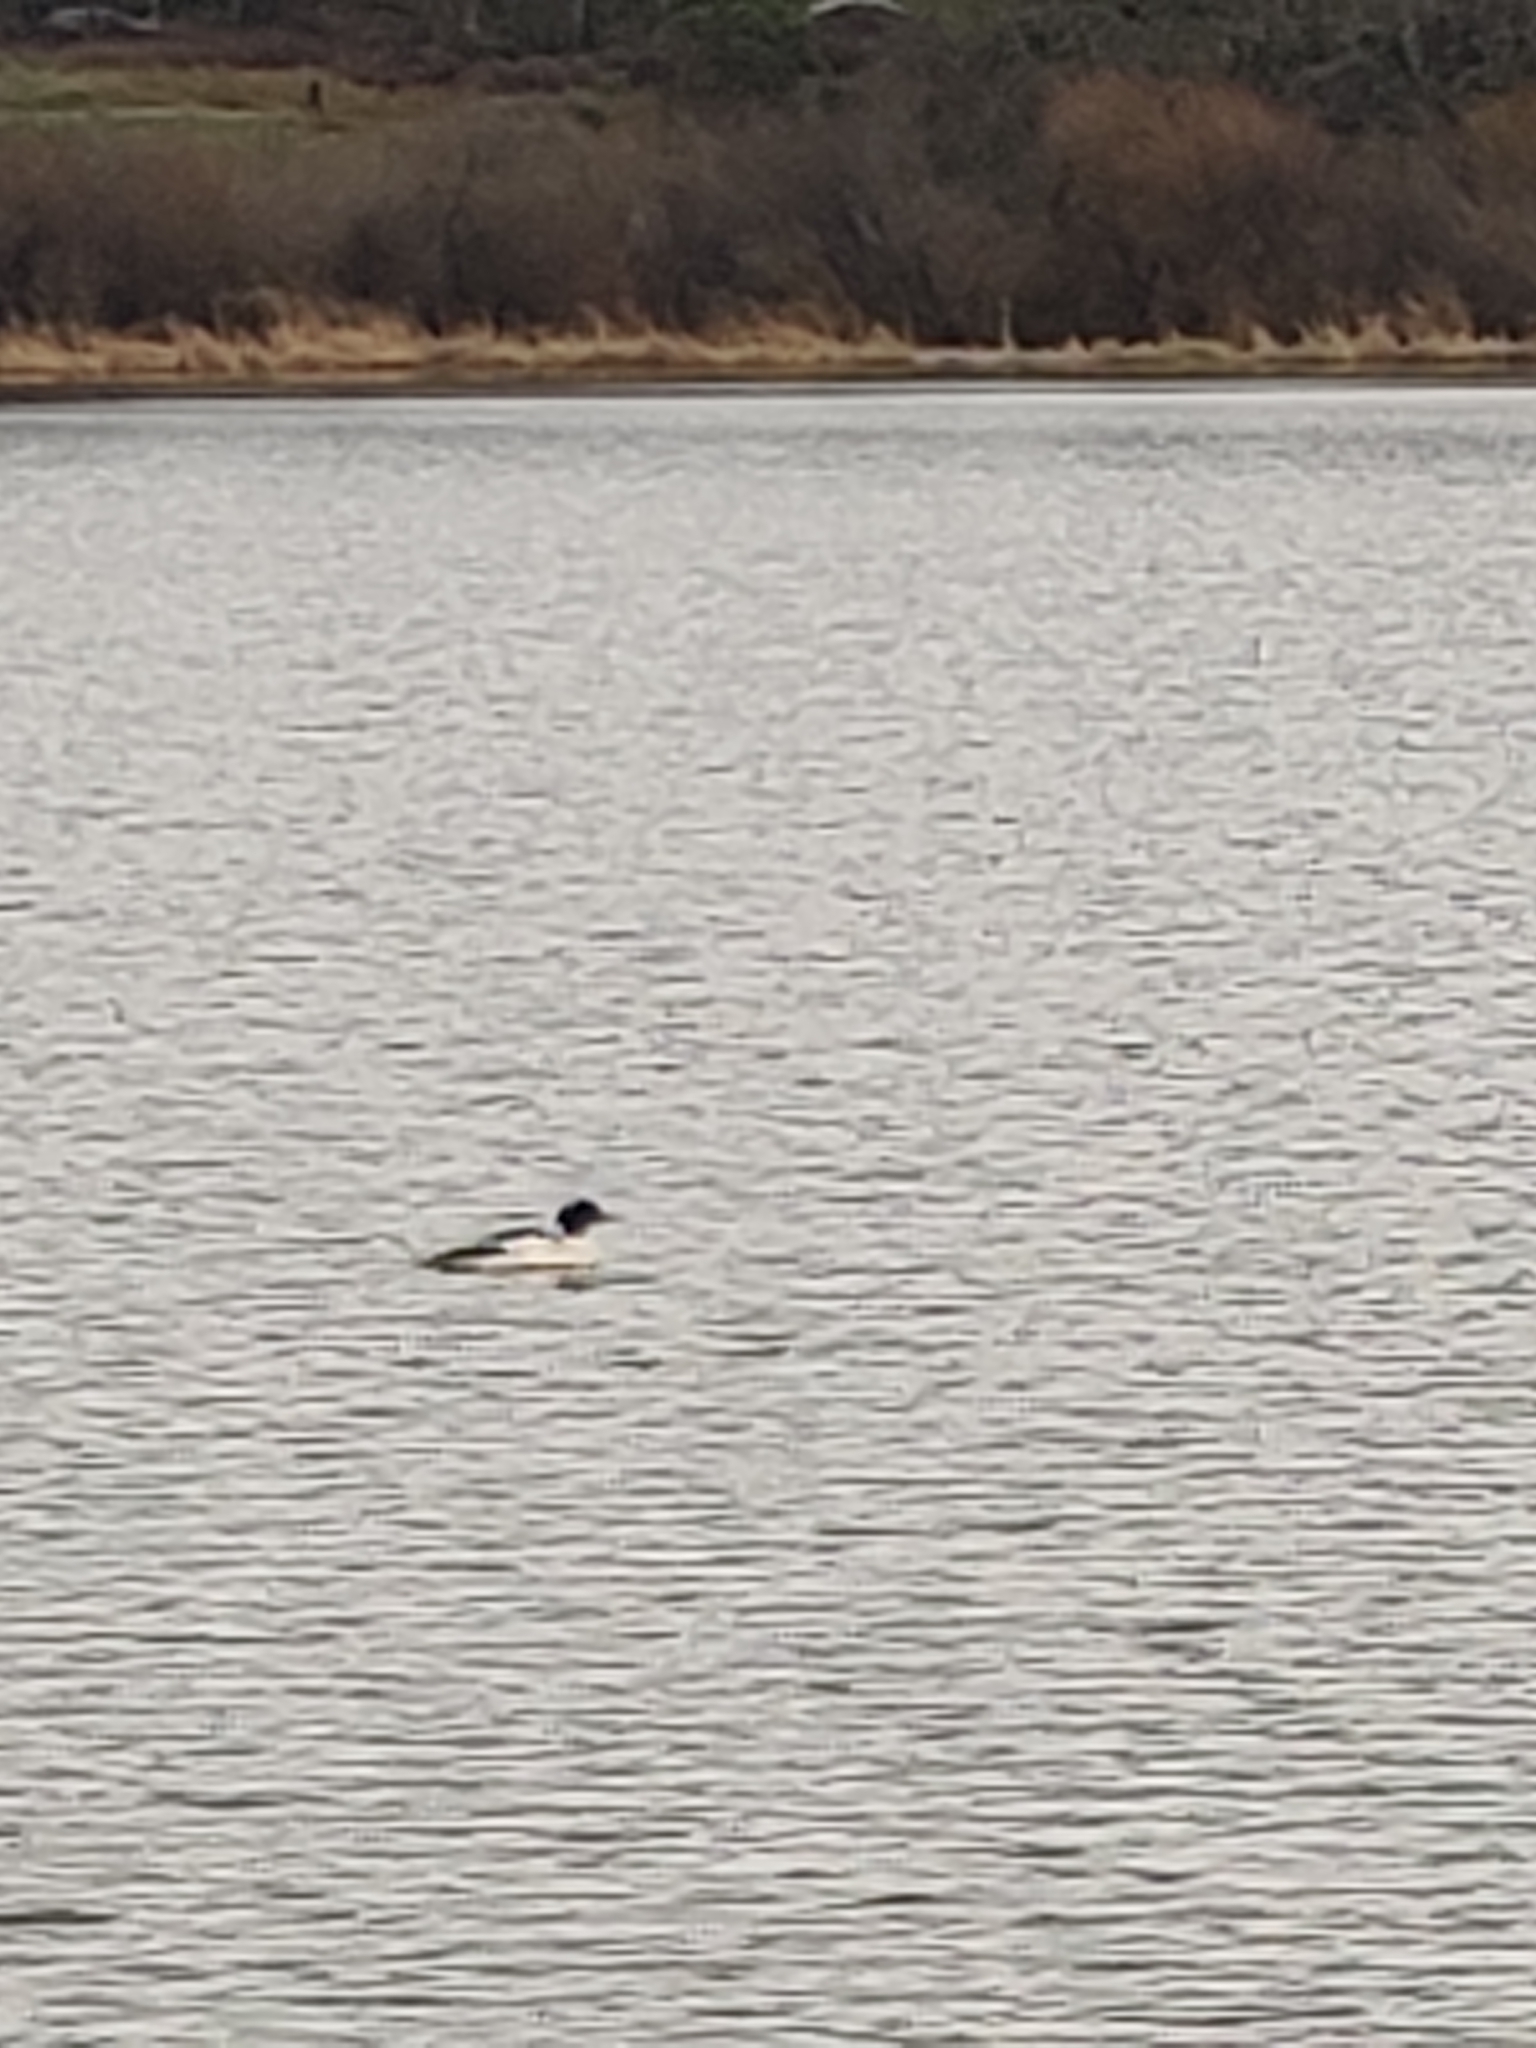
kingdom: Animalia
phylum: Chordata
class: Aves
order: Anseriformes
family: Anatidae
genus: Mergus
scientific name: Mergus merganser
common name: Common merganser
